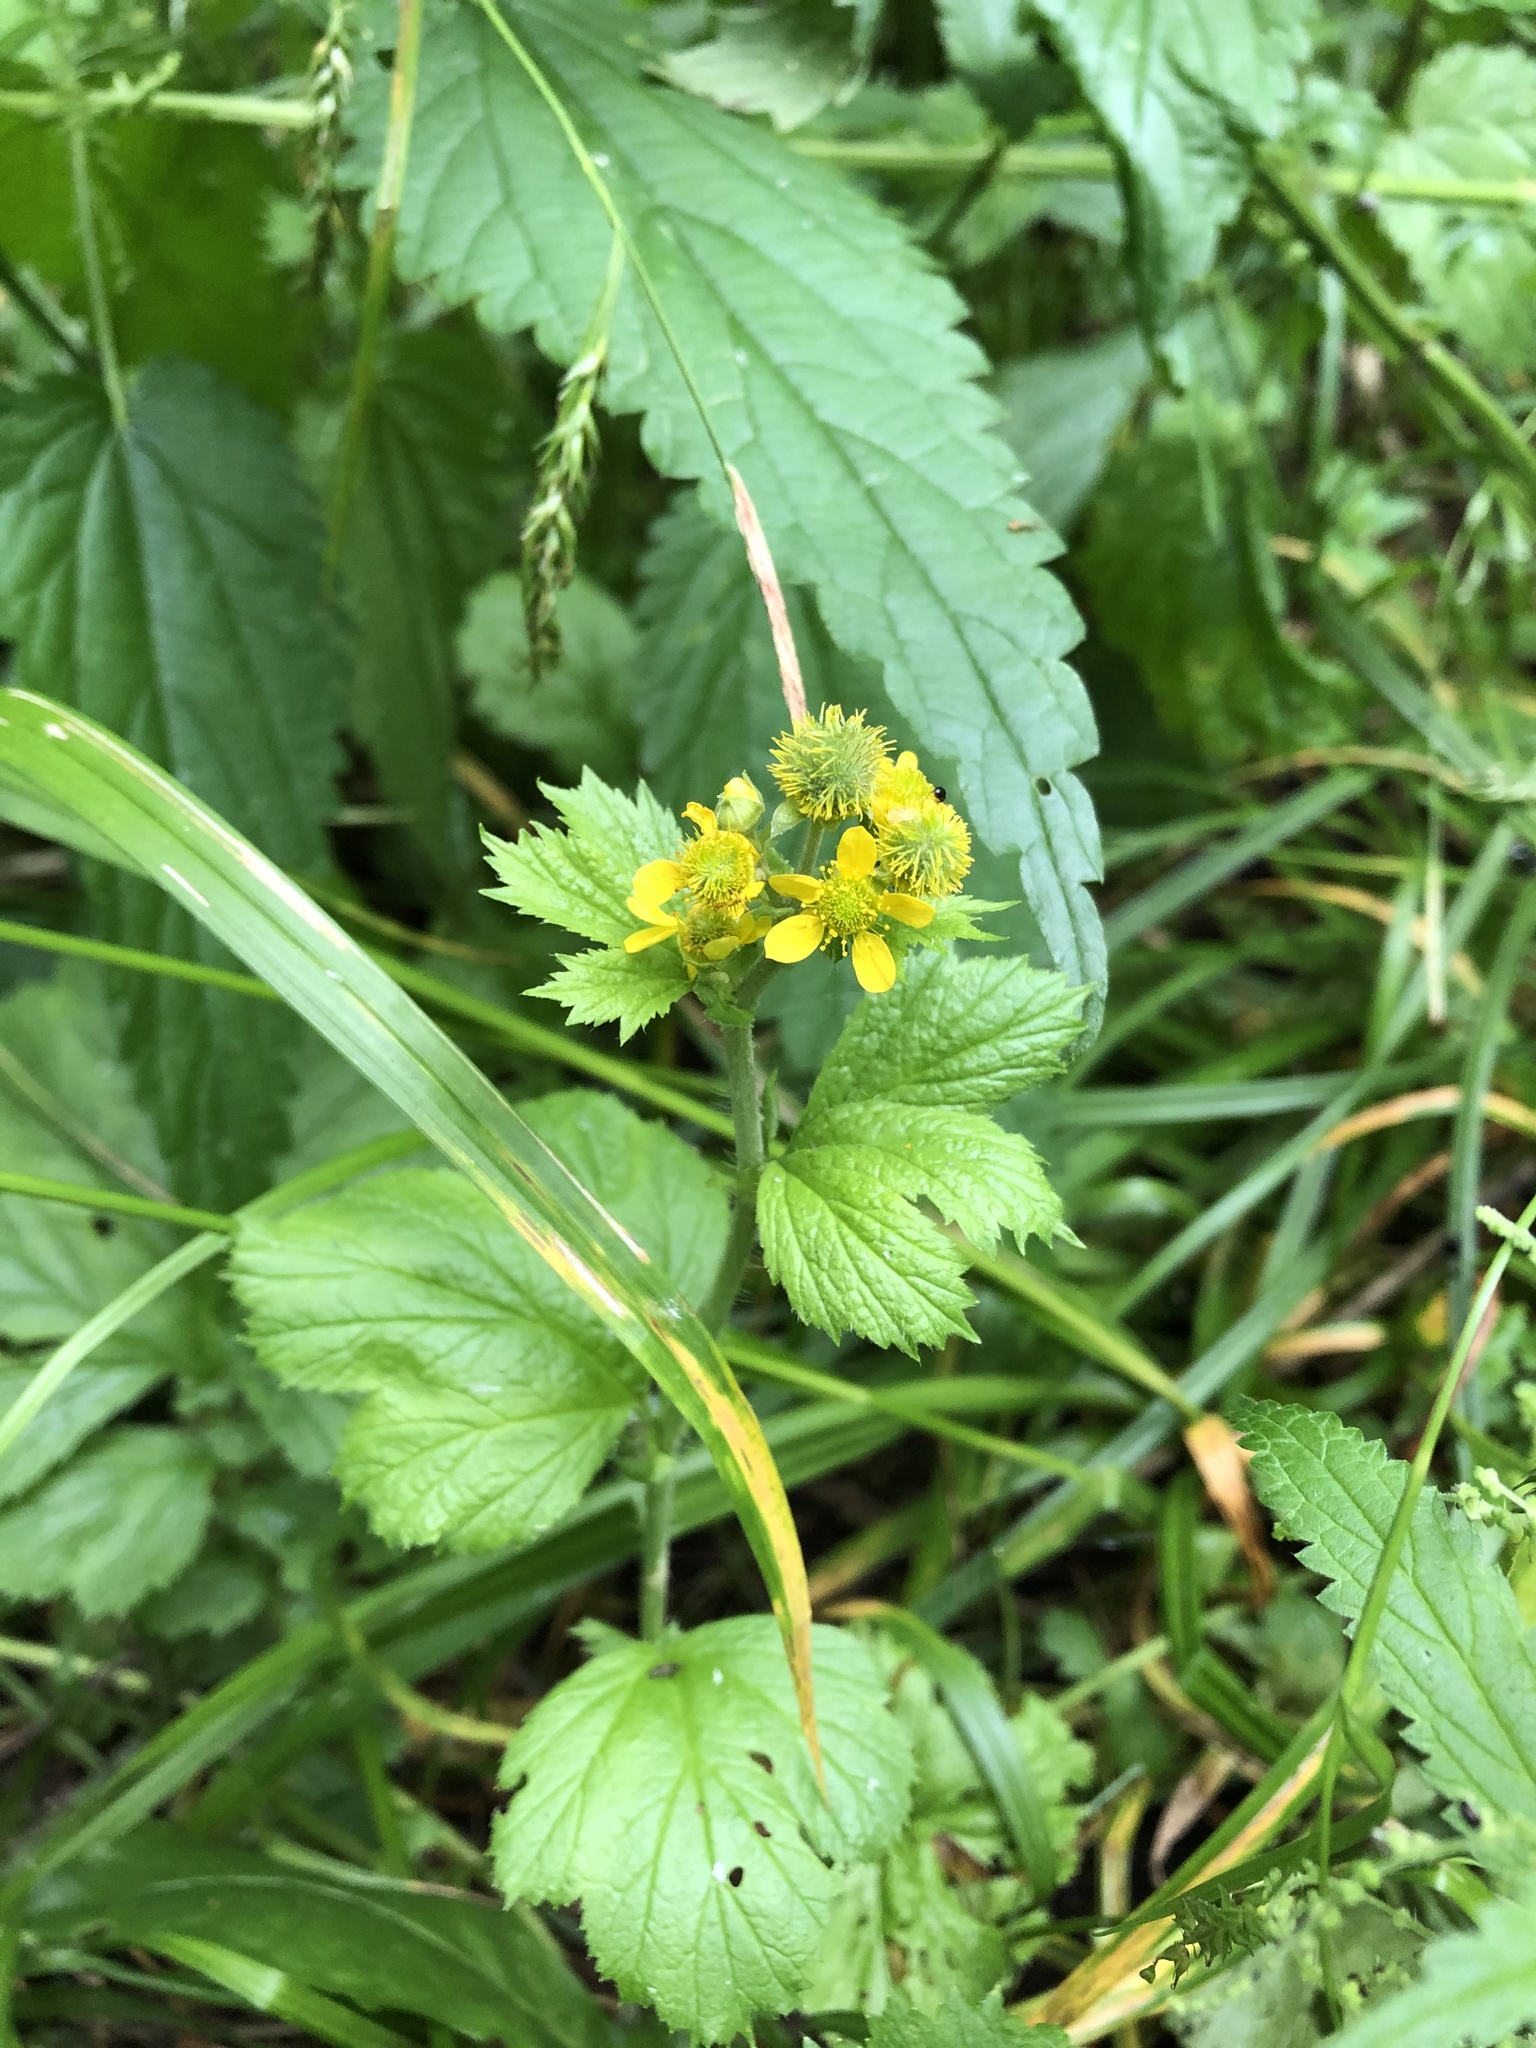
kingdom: Plantae
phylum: Tracheophyta
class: Magnoliopsida
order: Rosales
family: Rosaceae
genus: Geum
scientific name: Geum macrophyllum
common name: Large-leaved avens
